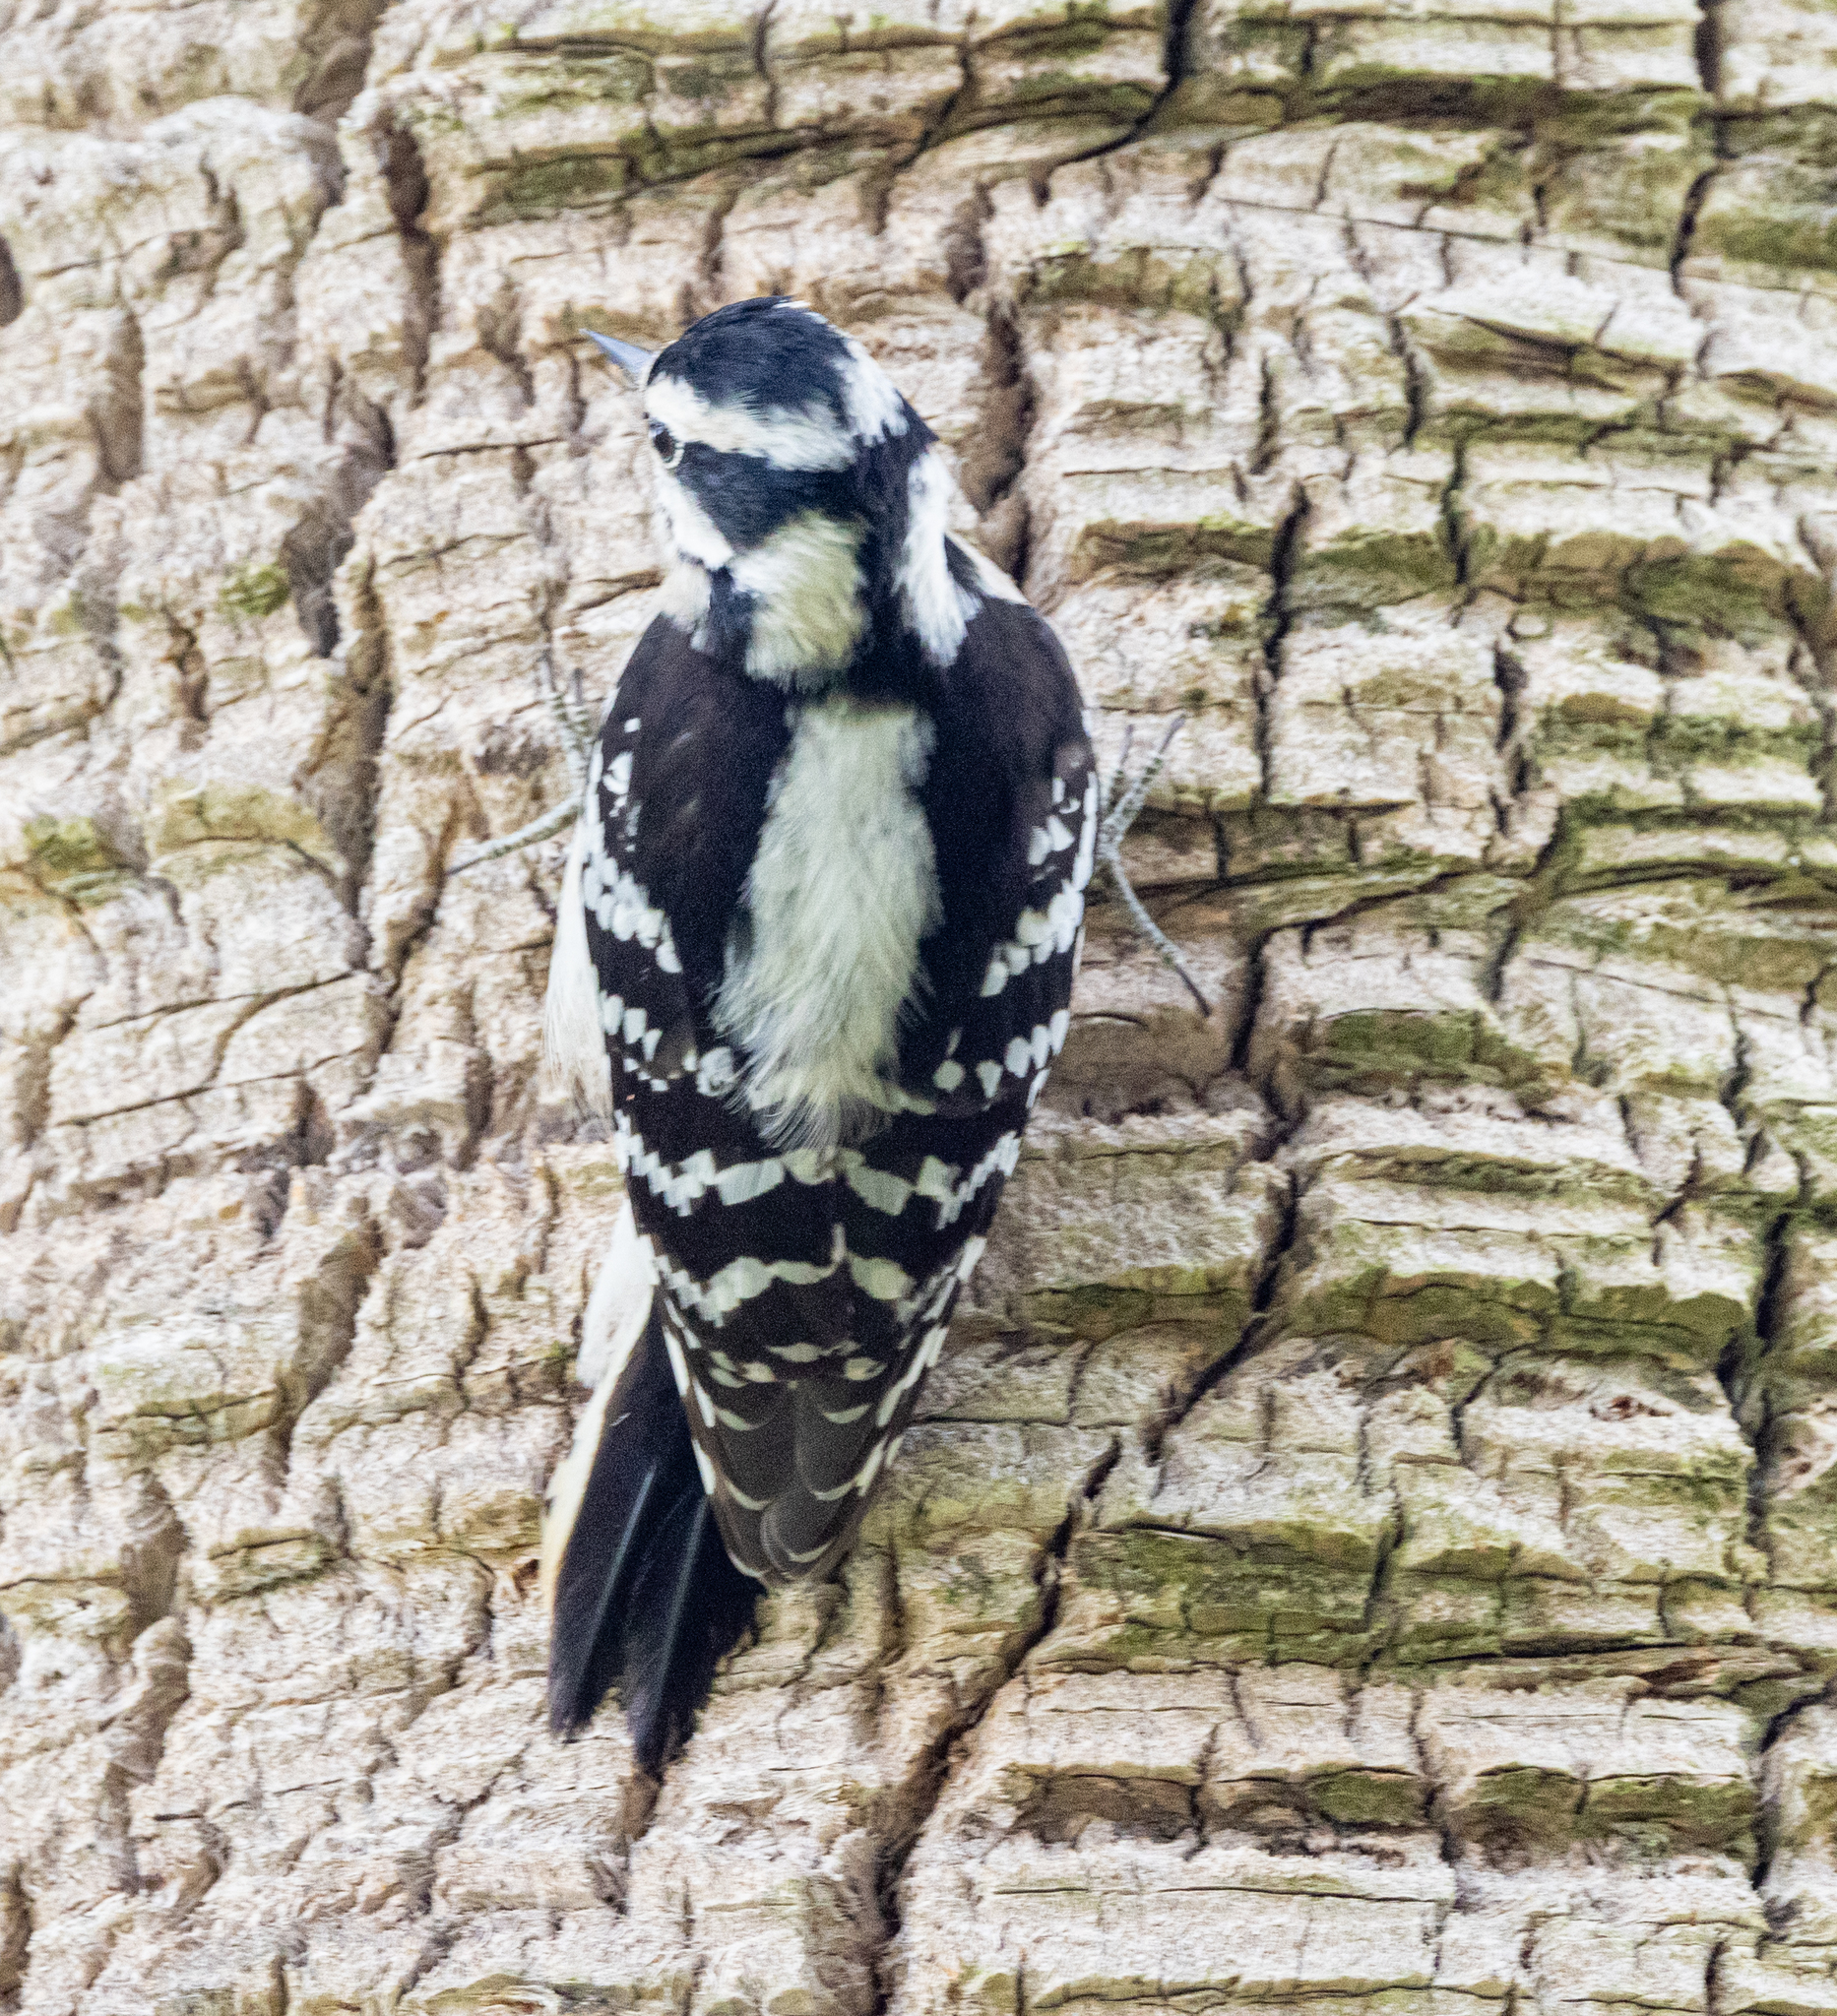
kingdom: Animalia
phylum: Chordata
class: Aves
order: Piciformes
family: Picidae
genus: Dryobates
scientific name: Dryobates pubescens
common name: Downy woodpecker
